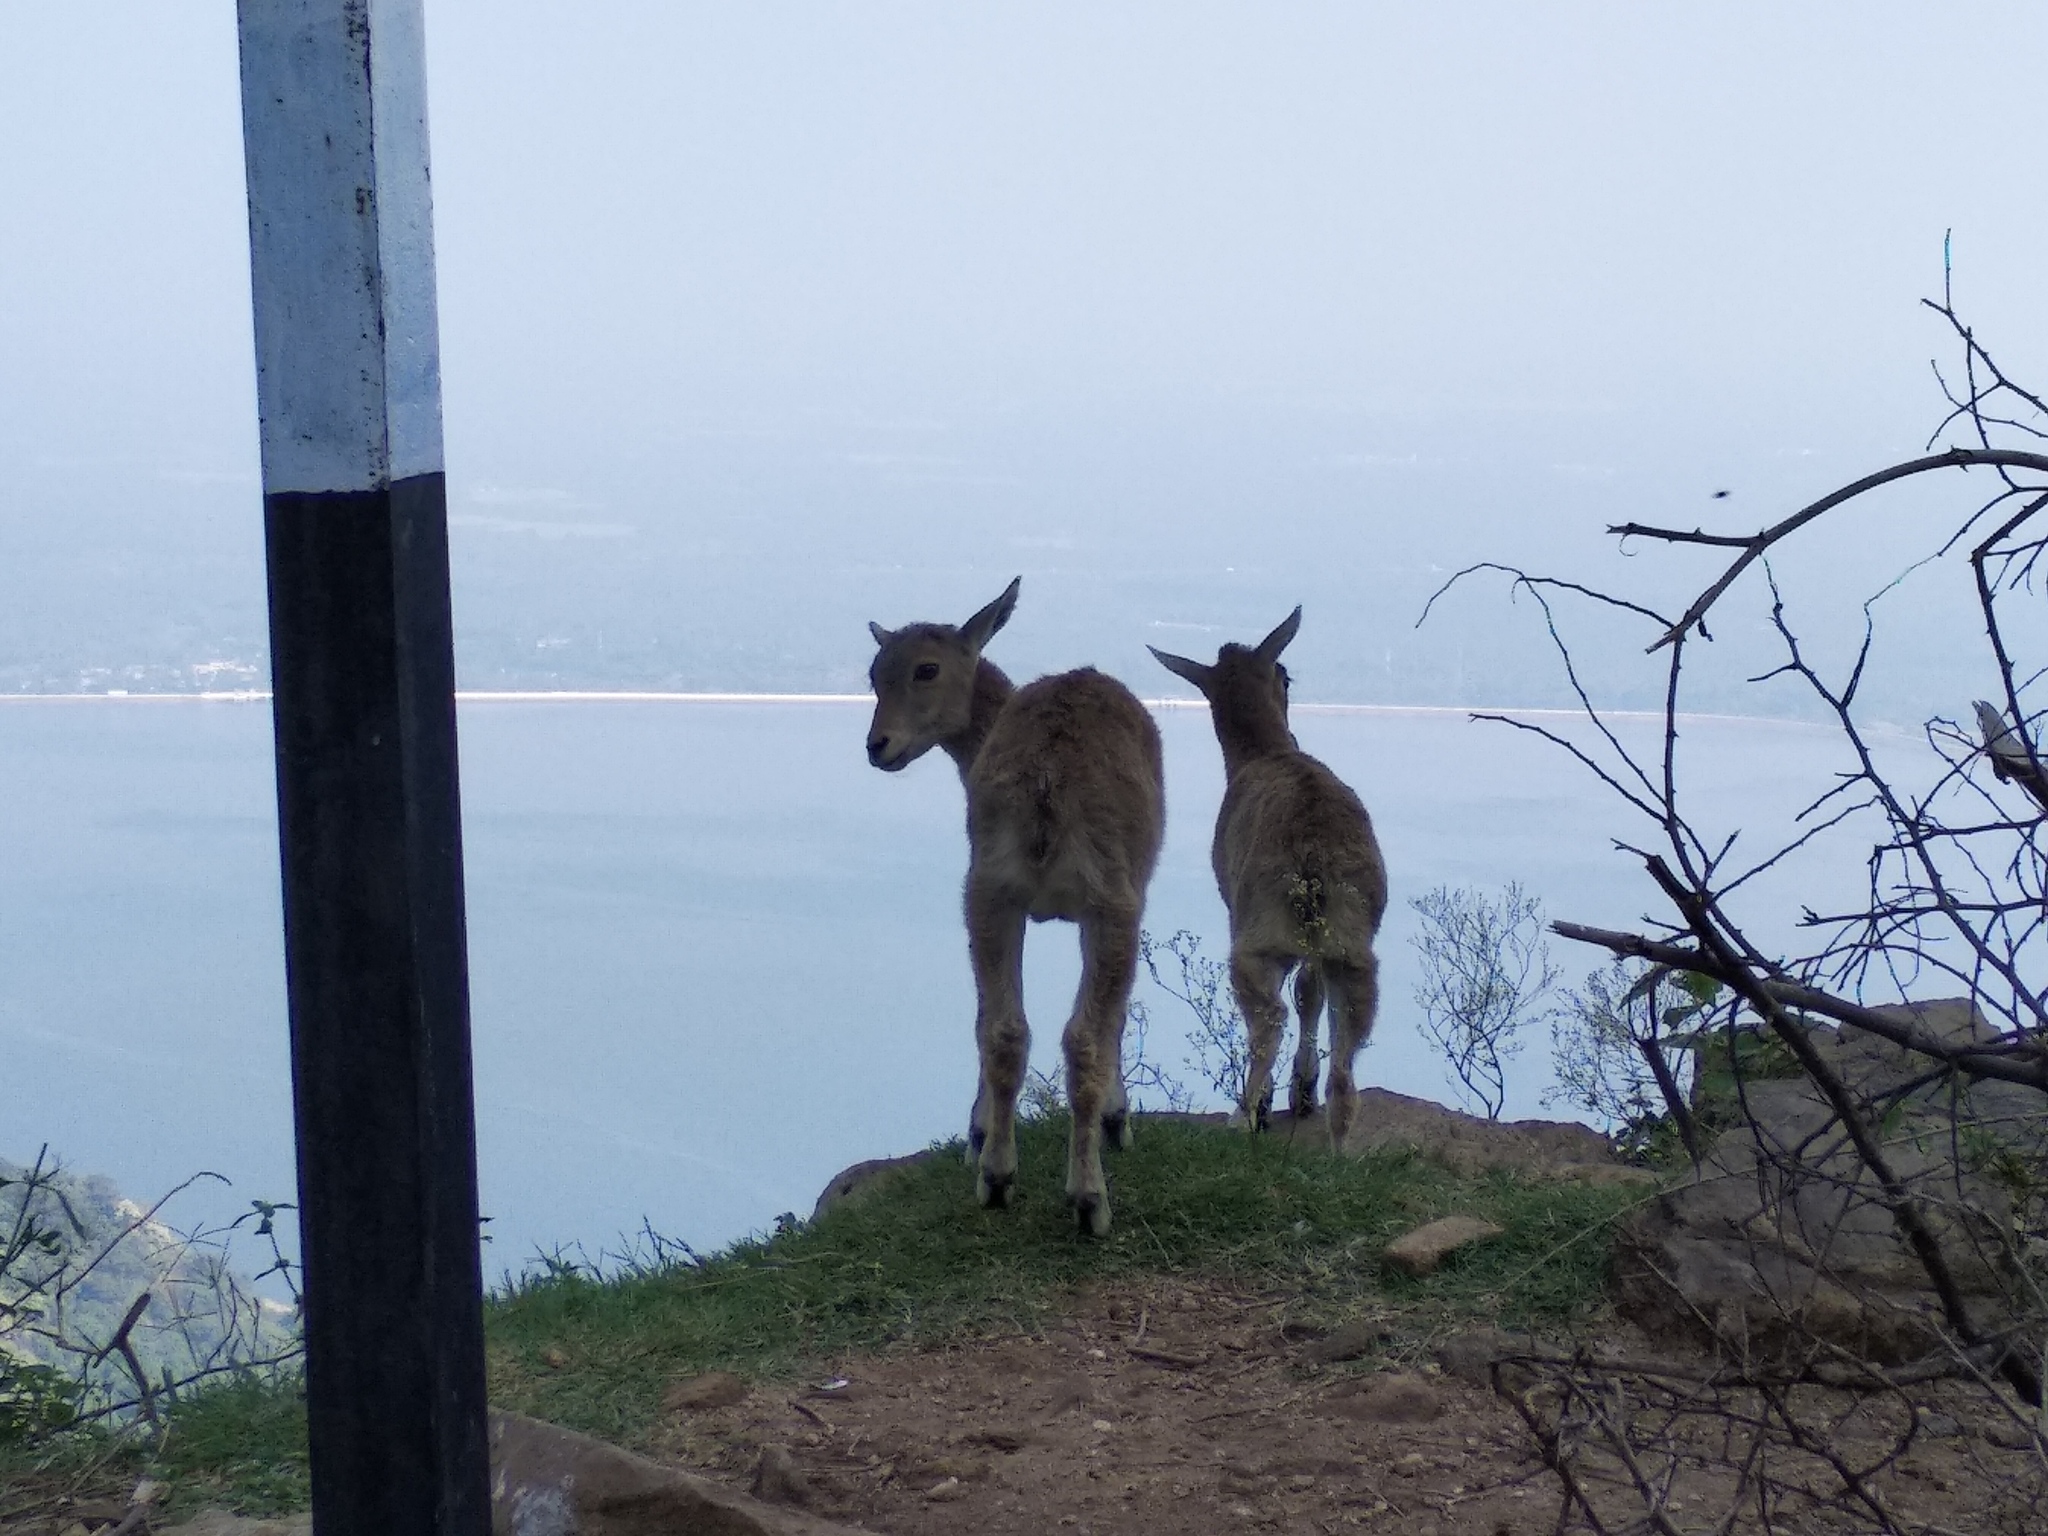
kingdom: Animalia
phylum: Chordata
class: Mammalia
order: Artiodactyla
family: Bovidae
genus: Hemitragus
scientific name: Hemitragus hylocrius
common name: Nilgiri tahr
